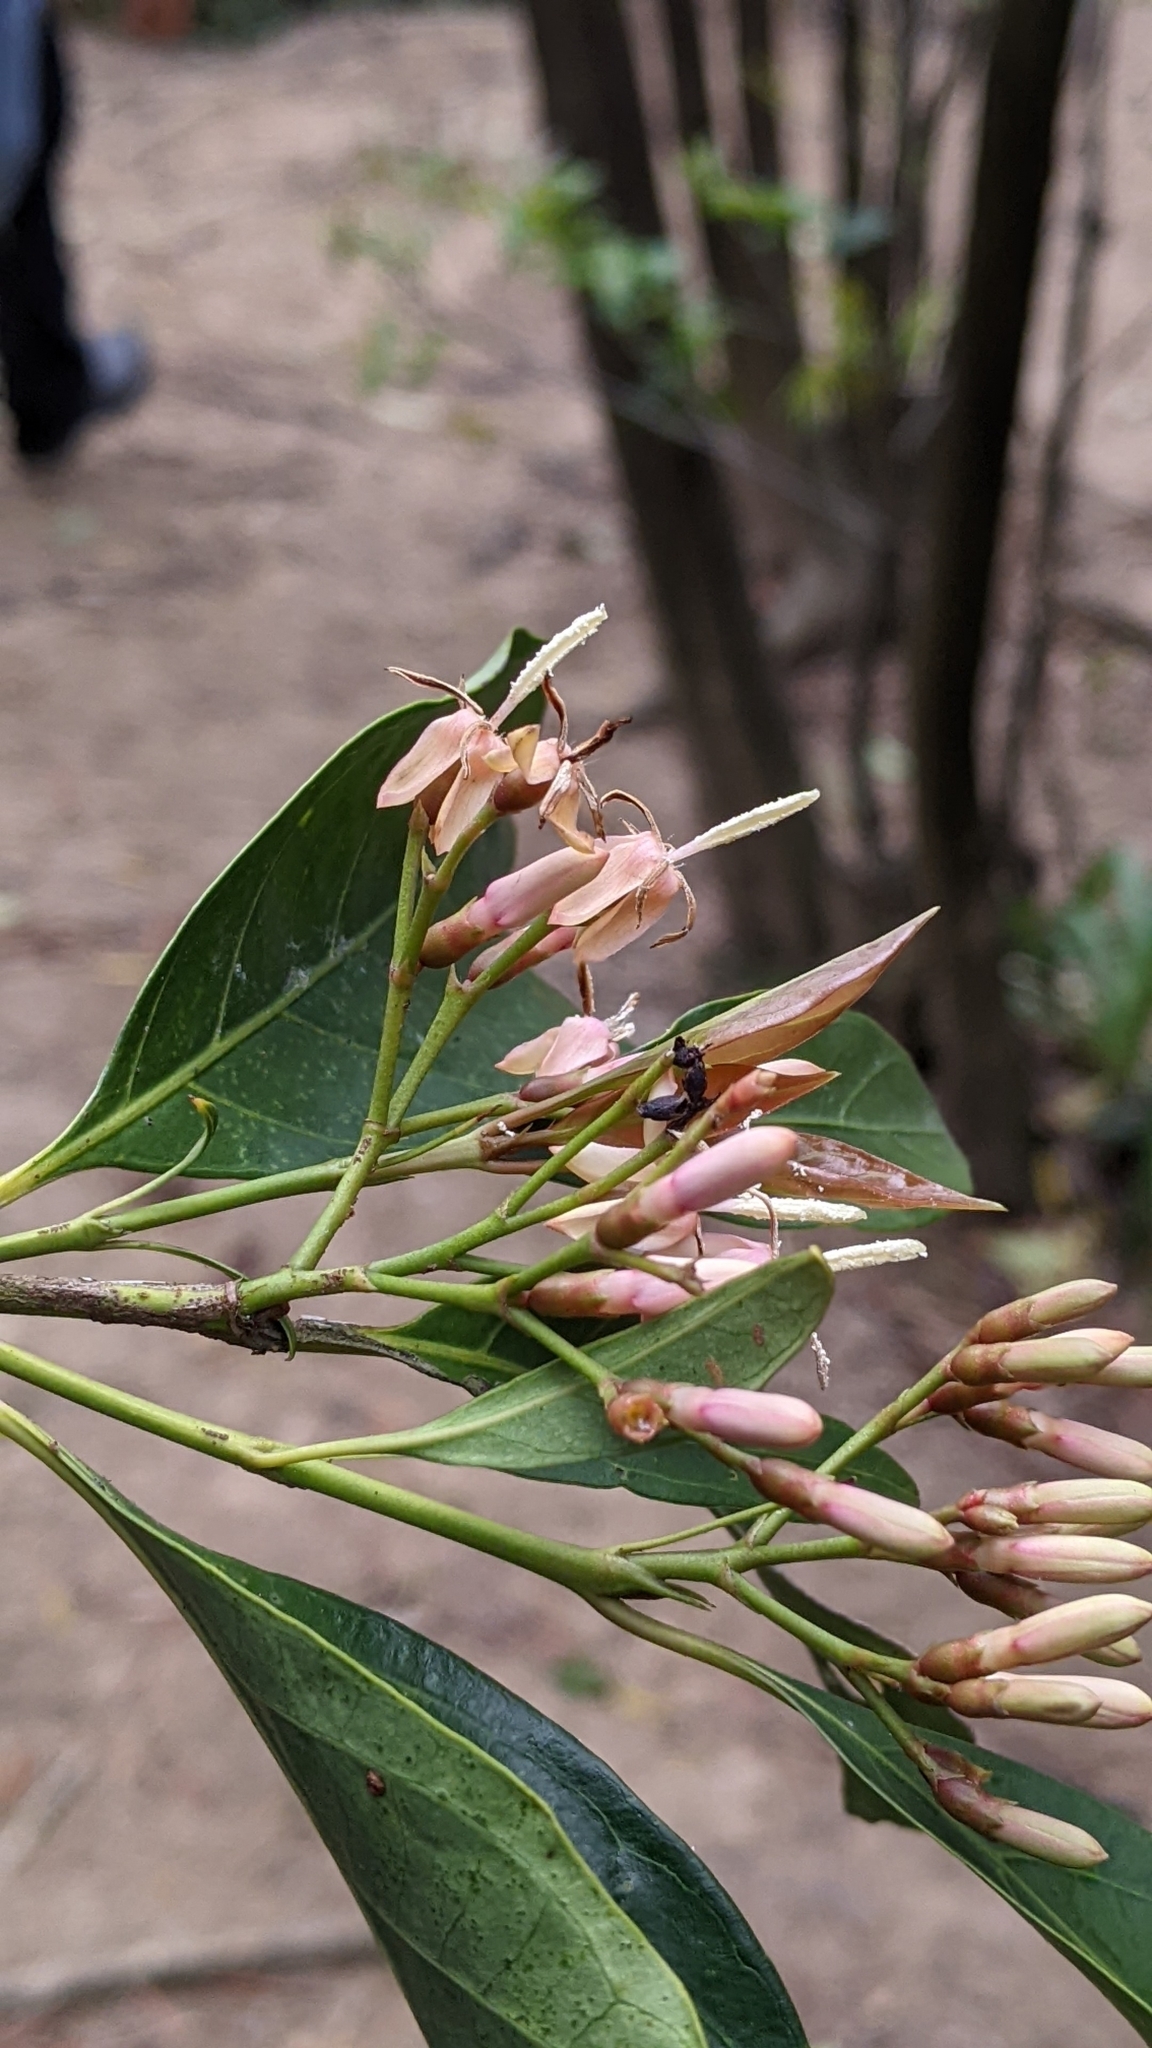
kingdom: Plantae
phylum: Tracheophyta
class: Magnoliopsida
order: Gentianales
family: Rubiaceae
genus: Aidia
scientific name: Aidia cochinchinensis
